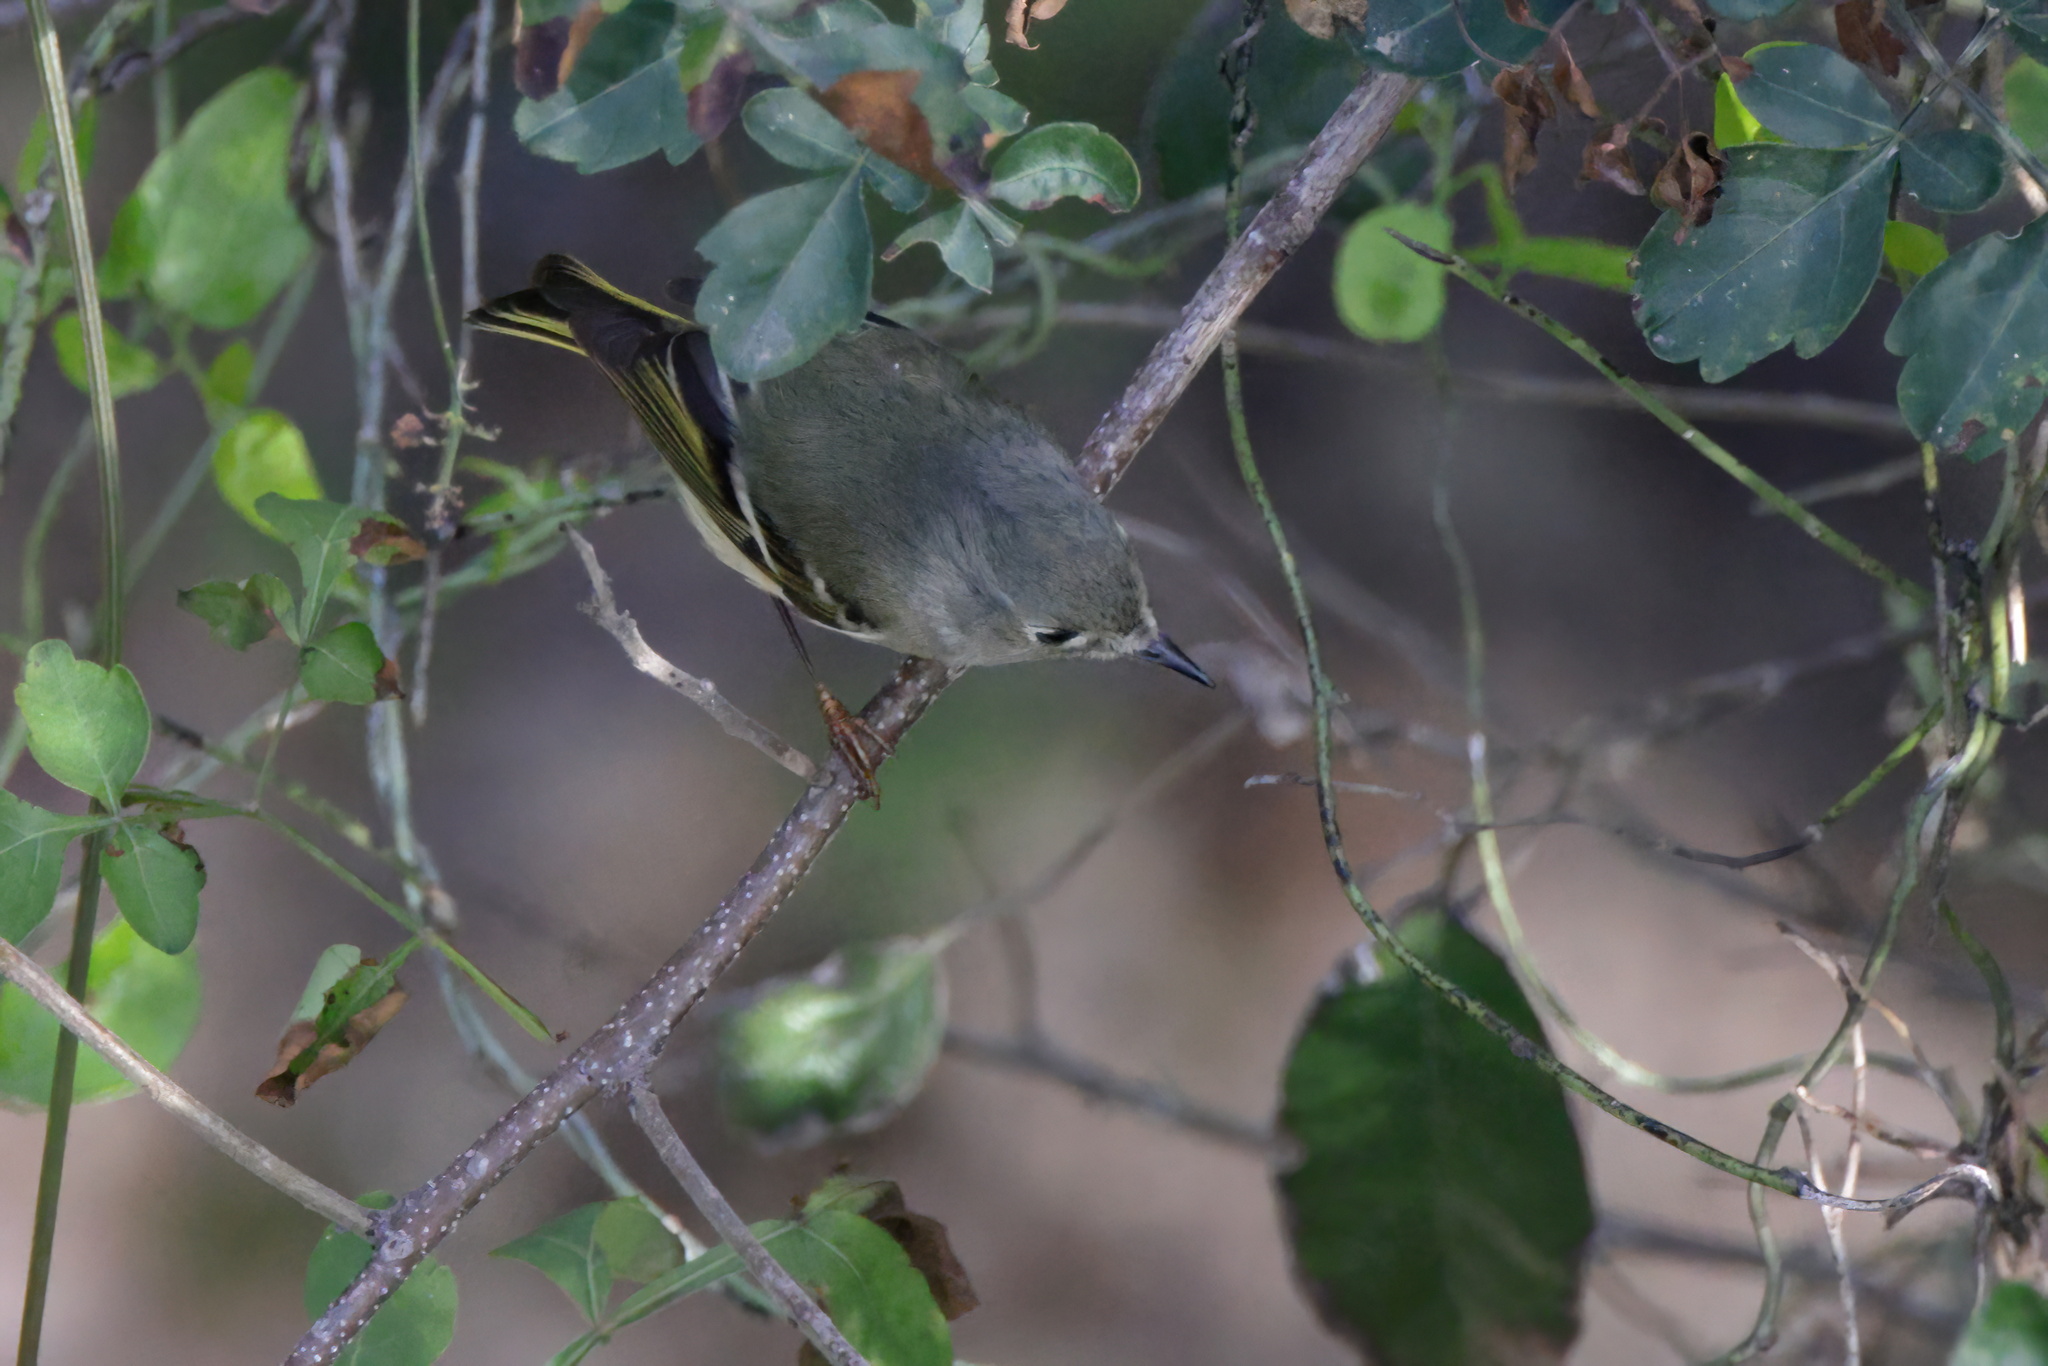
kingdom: Animalia
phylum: Chordata
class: Aves
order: Passeriformes
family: Regulidae
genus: Regulus
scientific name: Regulus calendula
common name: Ruby-crowned kinglet
